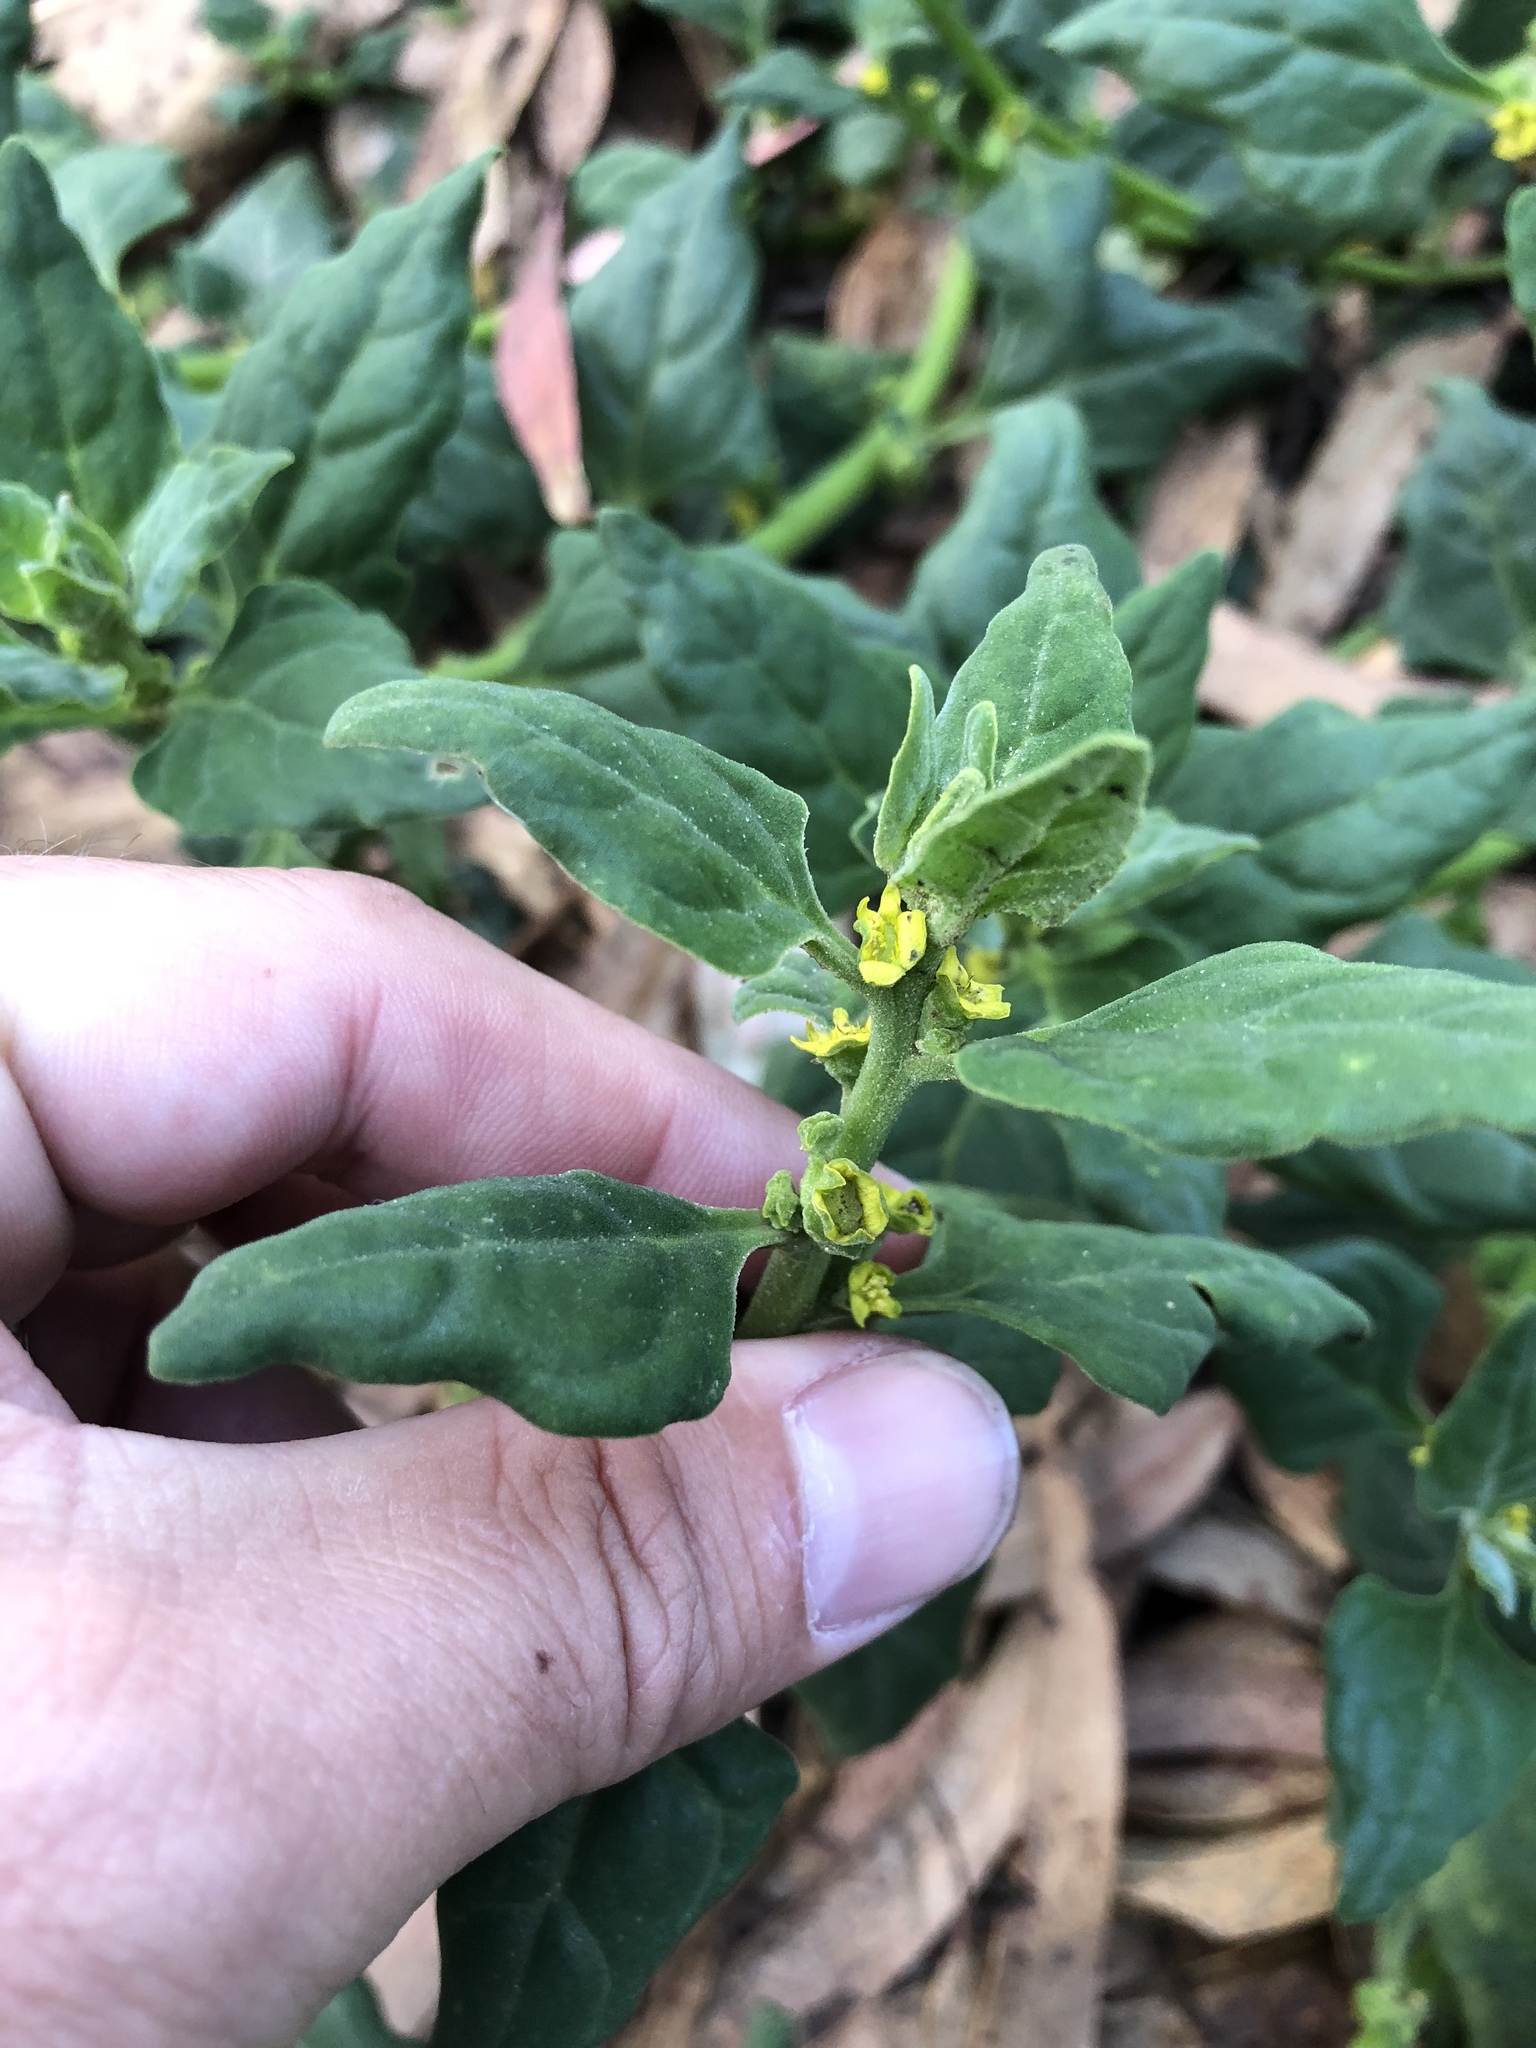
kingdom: Plantae
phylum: Tracheophyta
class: Magnoliopsida
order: Caryophyllales
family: Aizoaceae
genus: Tetragonia
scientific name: Tetragonia tetragonoides
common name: New zealand-spinach
